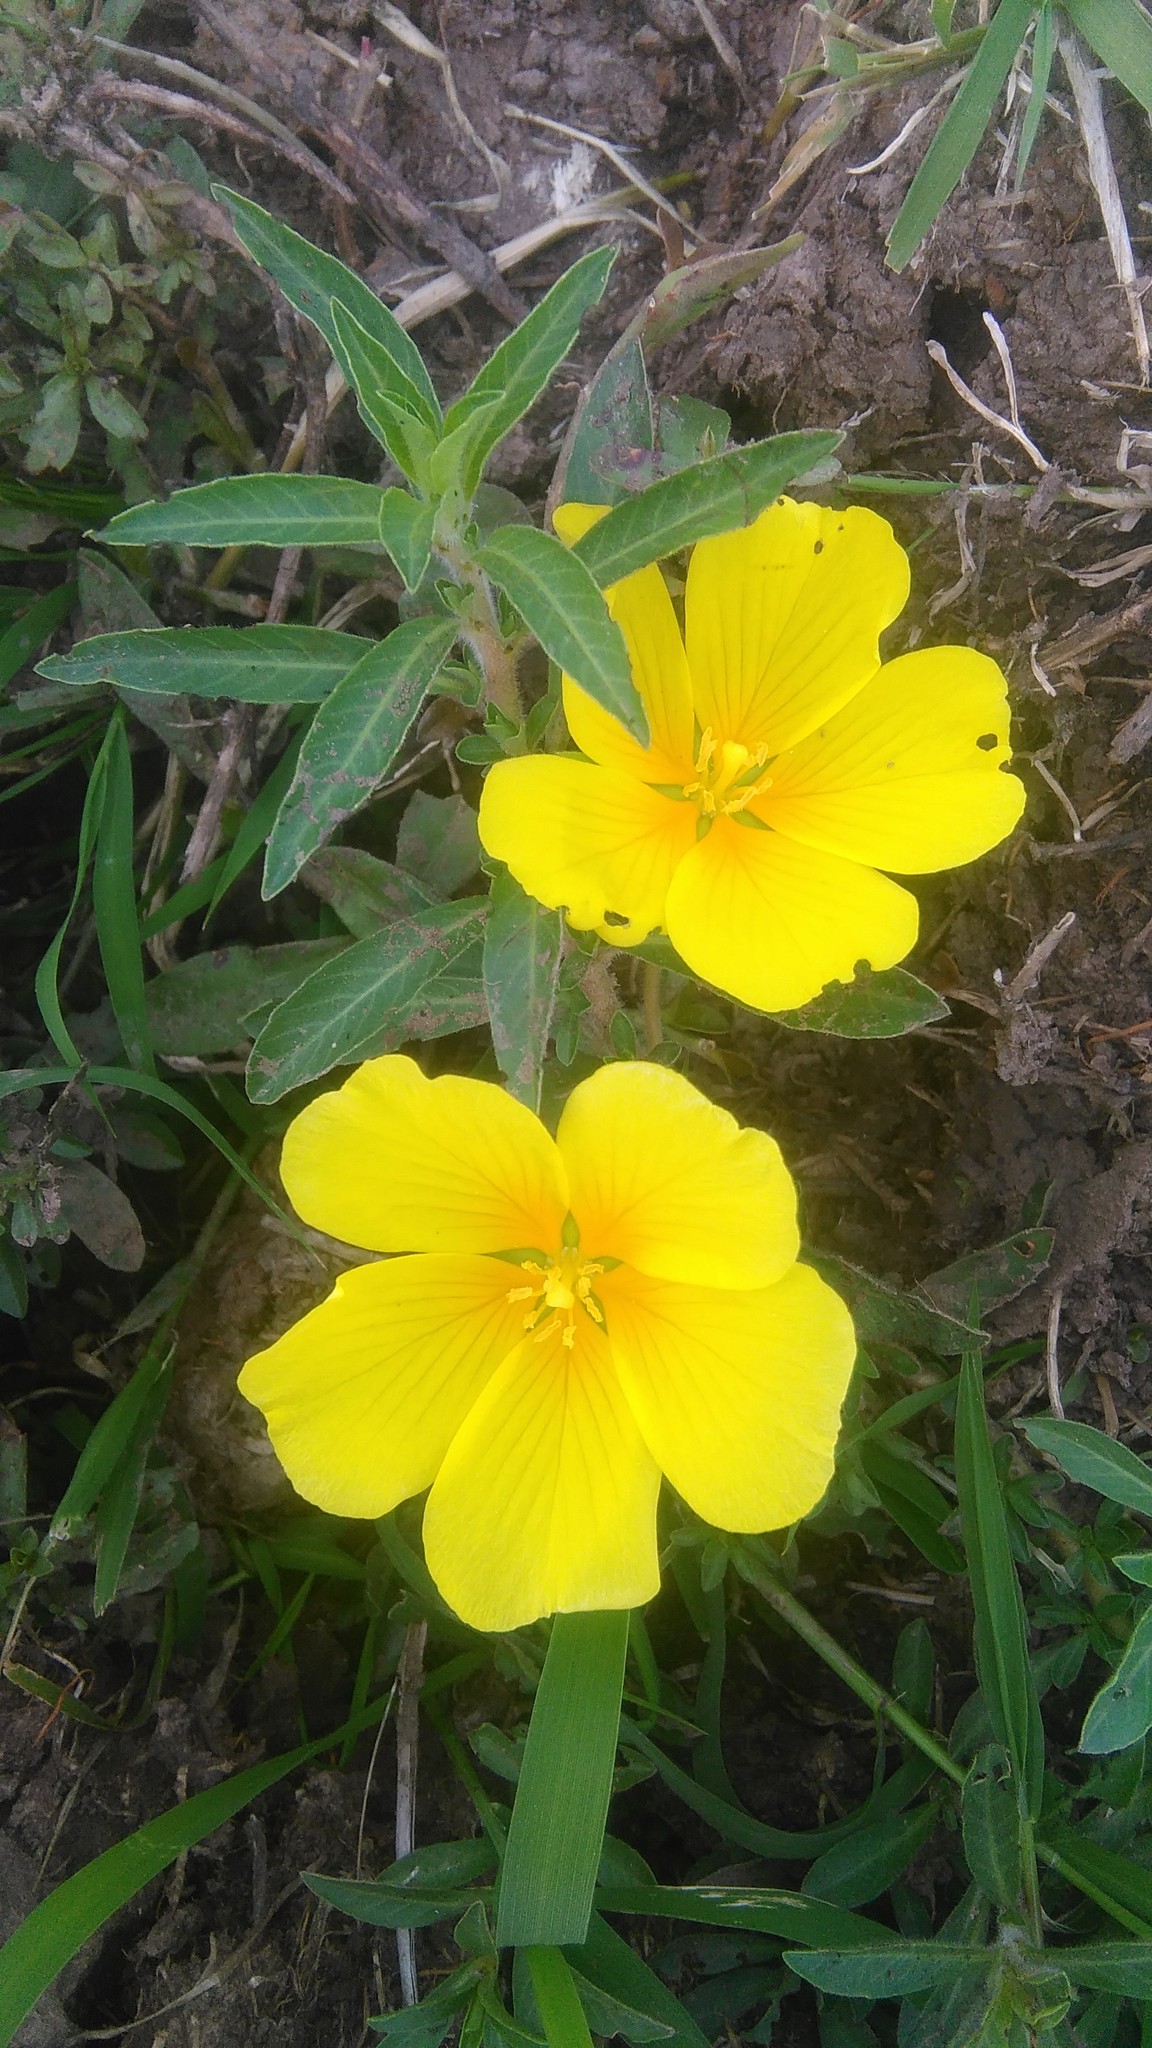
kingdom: Plantae
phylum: Tracheophyta
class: Magnoliopsida
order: Myrtales
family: Onagraceae
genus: Ludwigia
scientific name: Ludwigia peploides
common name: Floating primrose-willow
